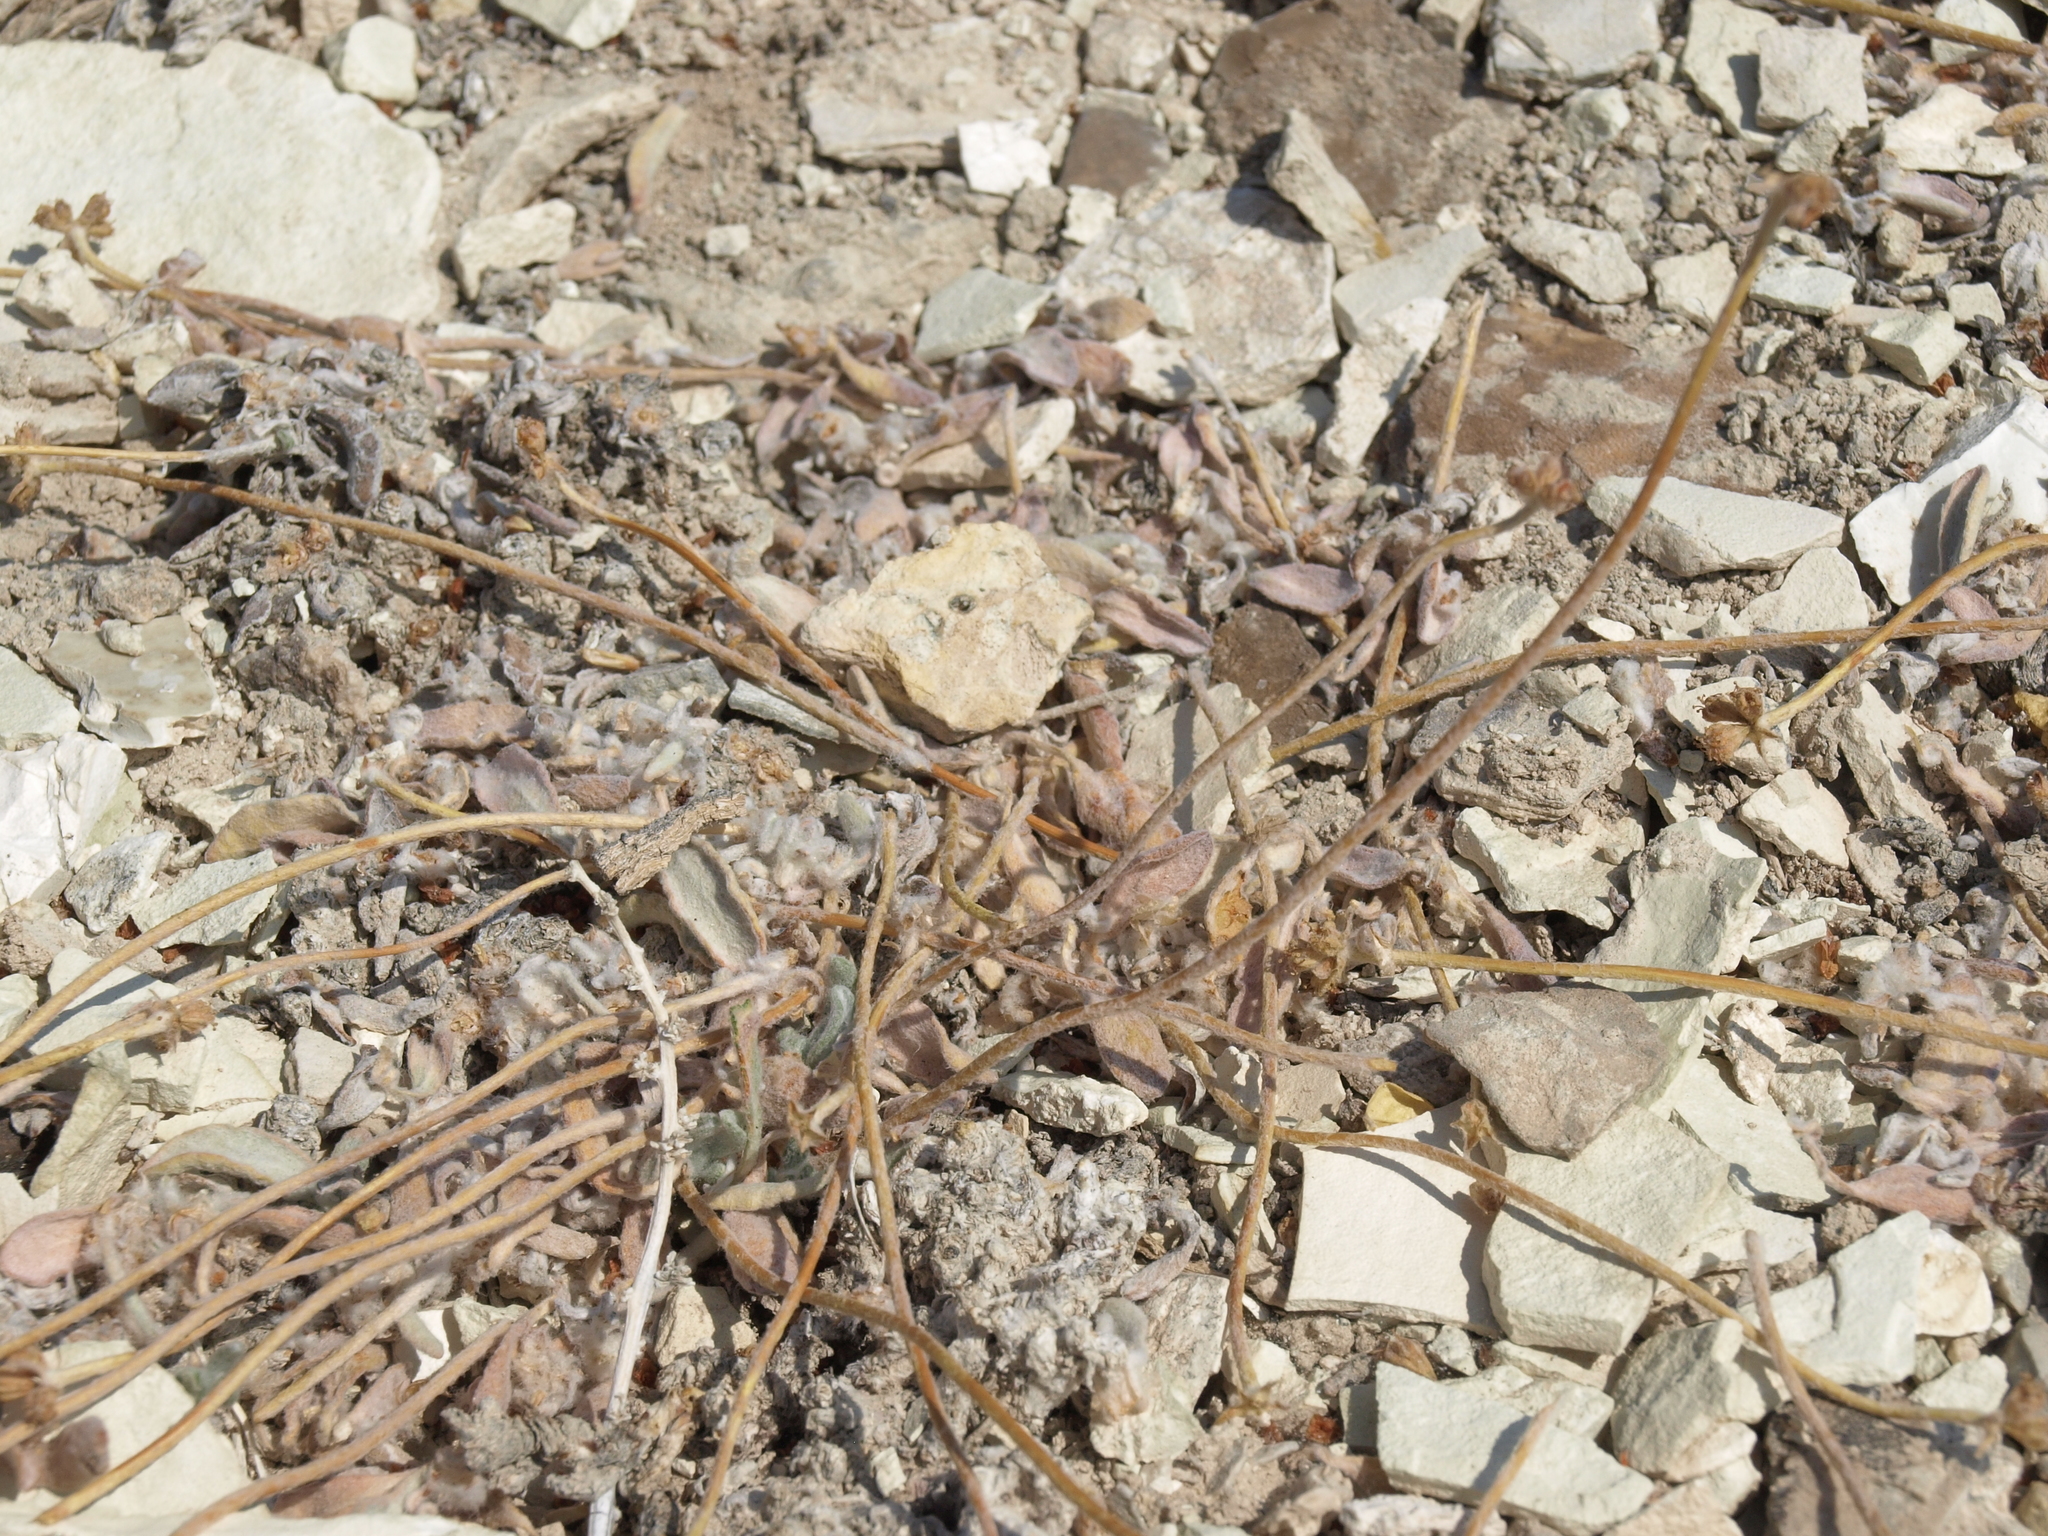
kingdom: Plantae
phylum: Tracheophyta
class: Magnoliopsida
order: Caryophyllales
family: Polygonaceae
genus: Eriogonum
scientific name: Eriogonum tiehmii
